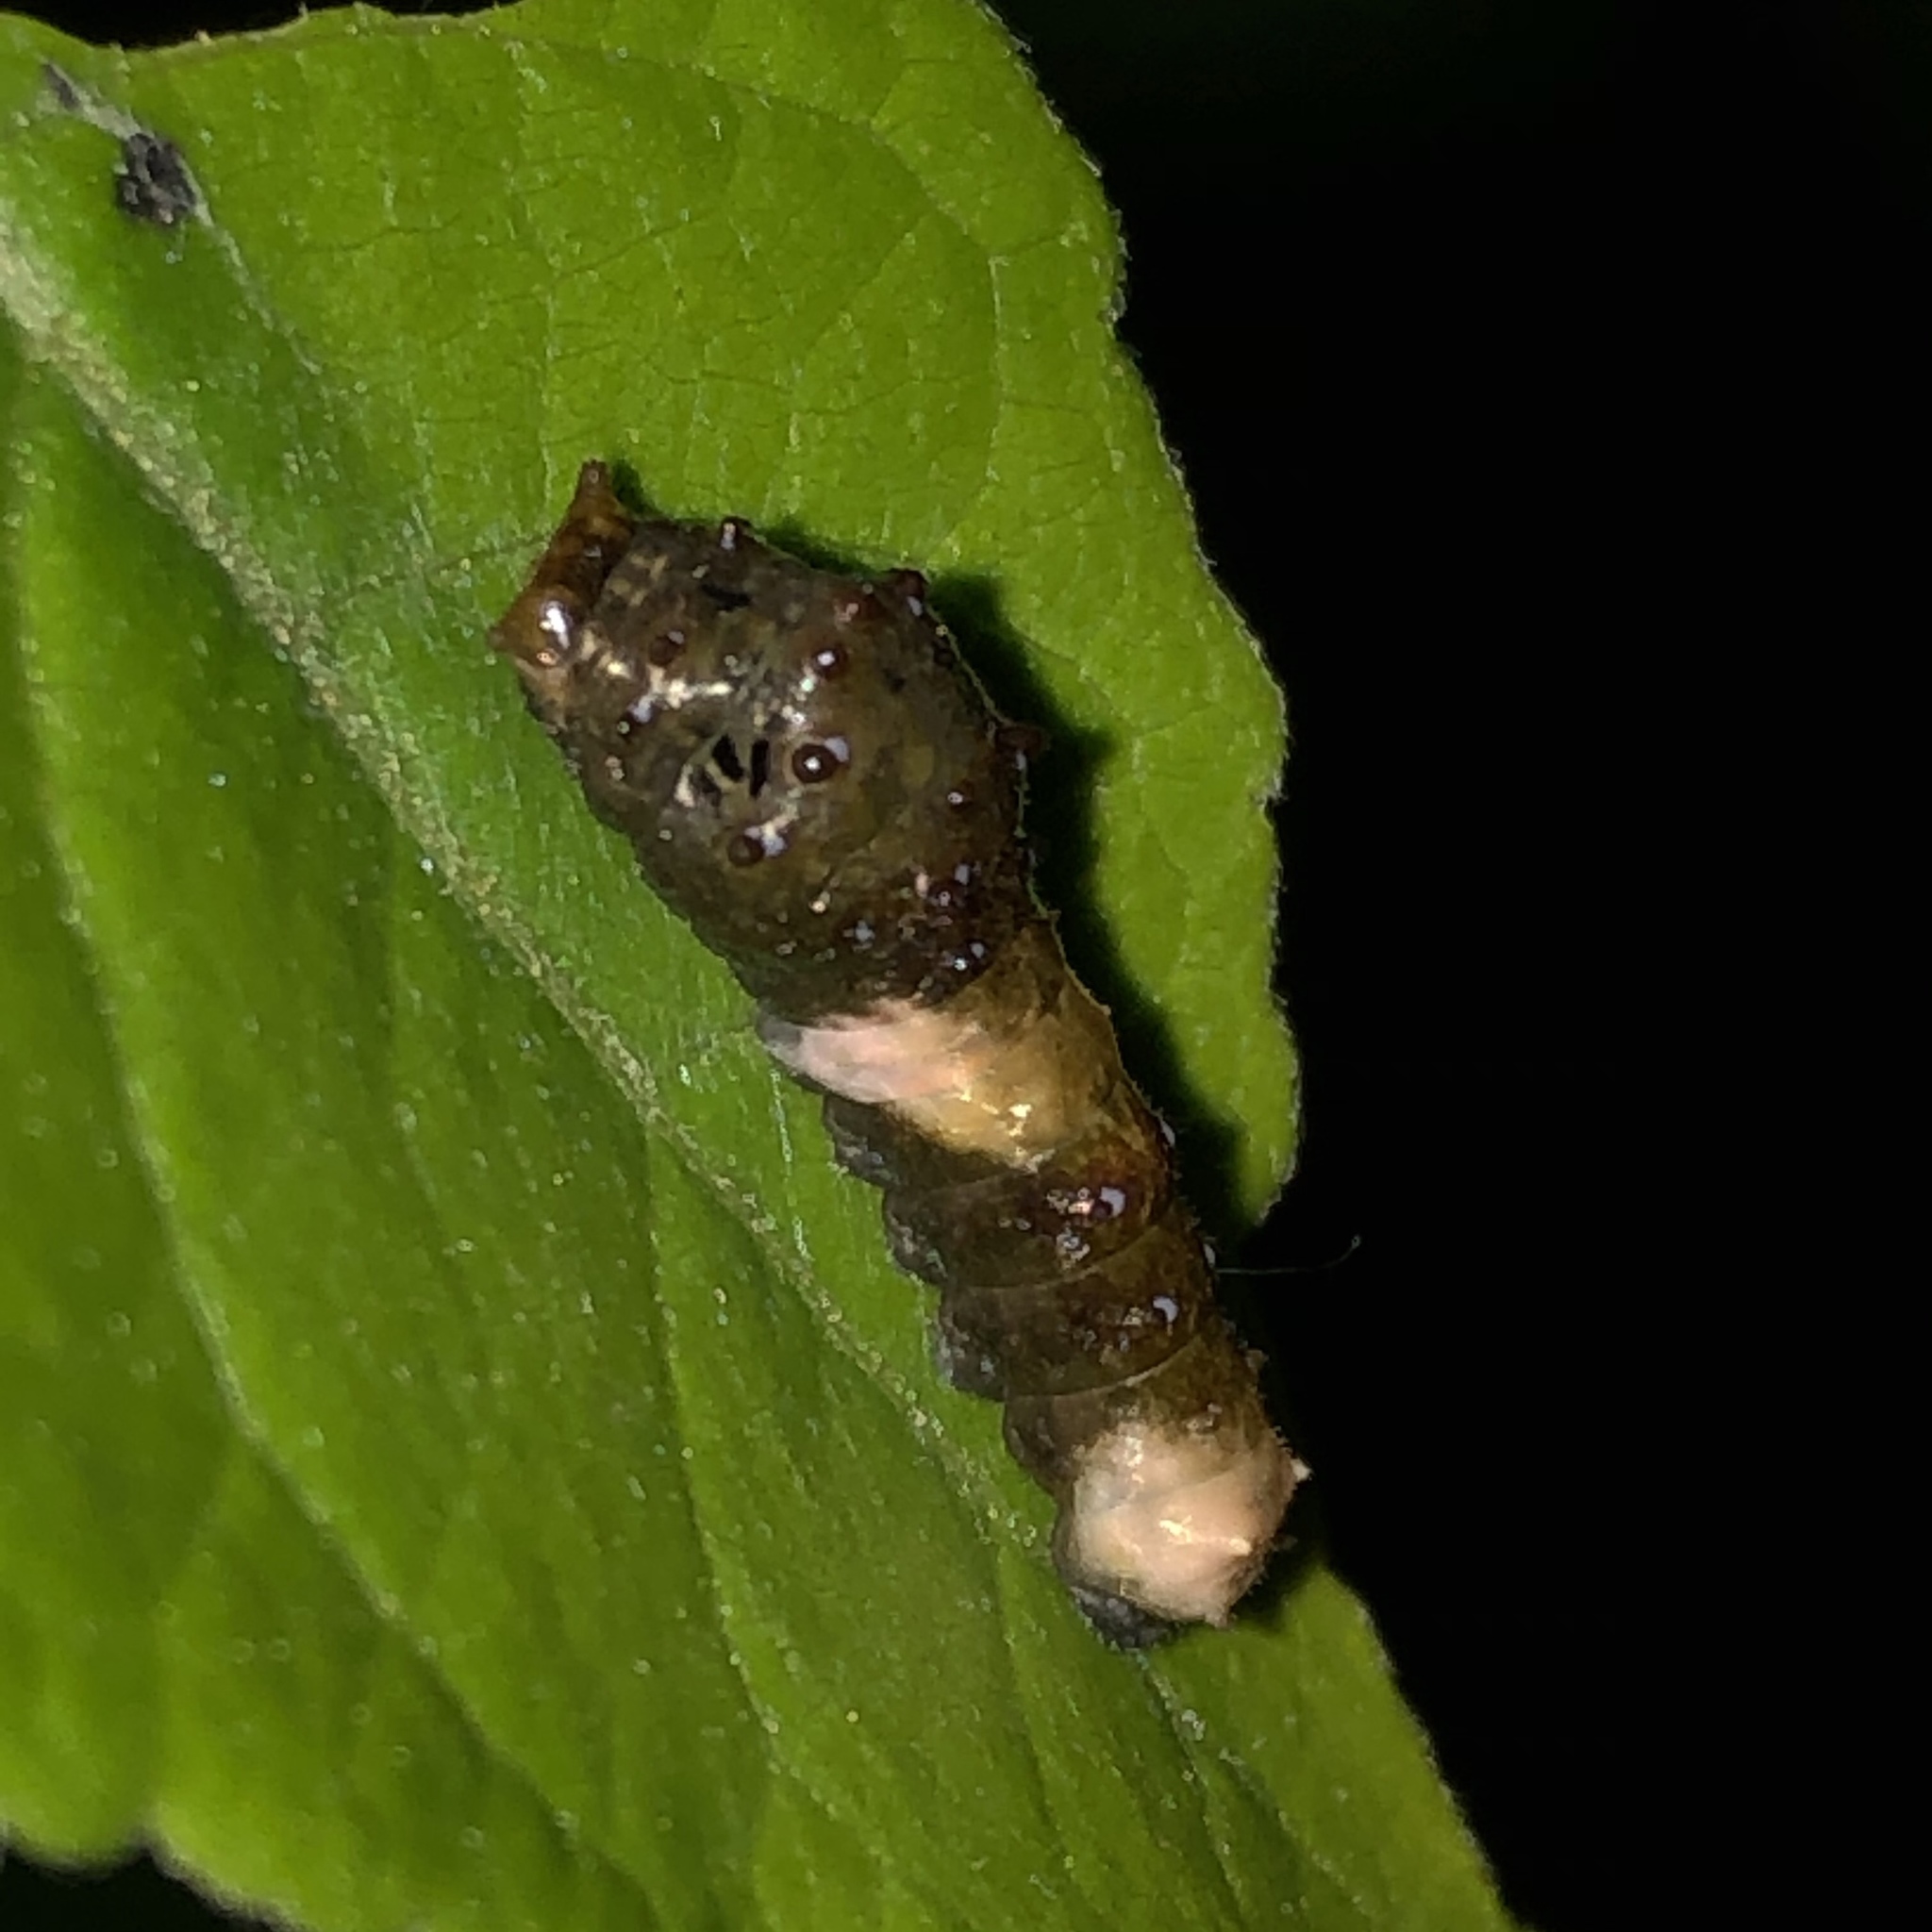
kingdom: Animalia
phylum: Arthropoda
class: Insecta
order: Lepidoptera
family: Papilionidae
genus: Papilio
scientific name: Papilio cresphontes
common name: Giant swallowtail
